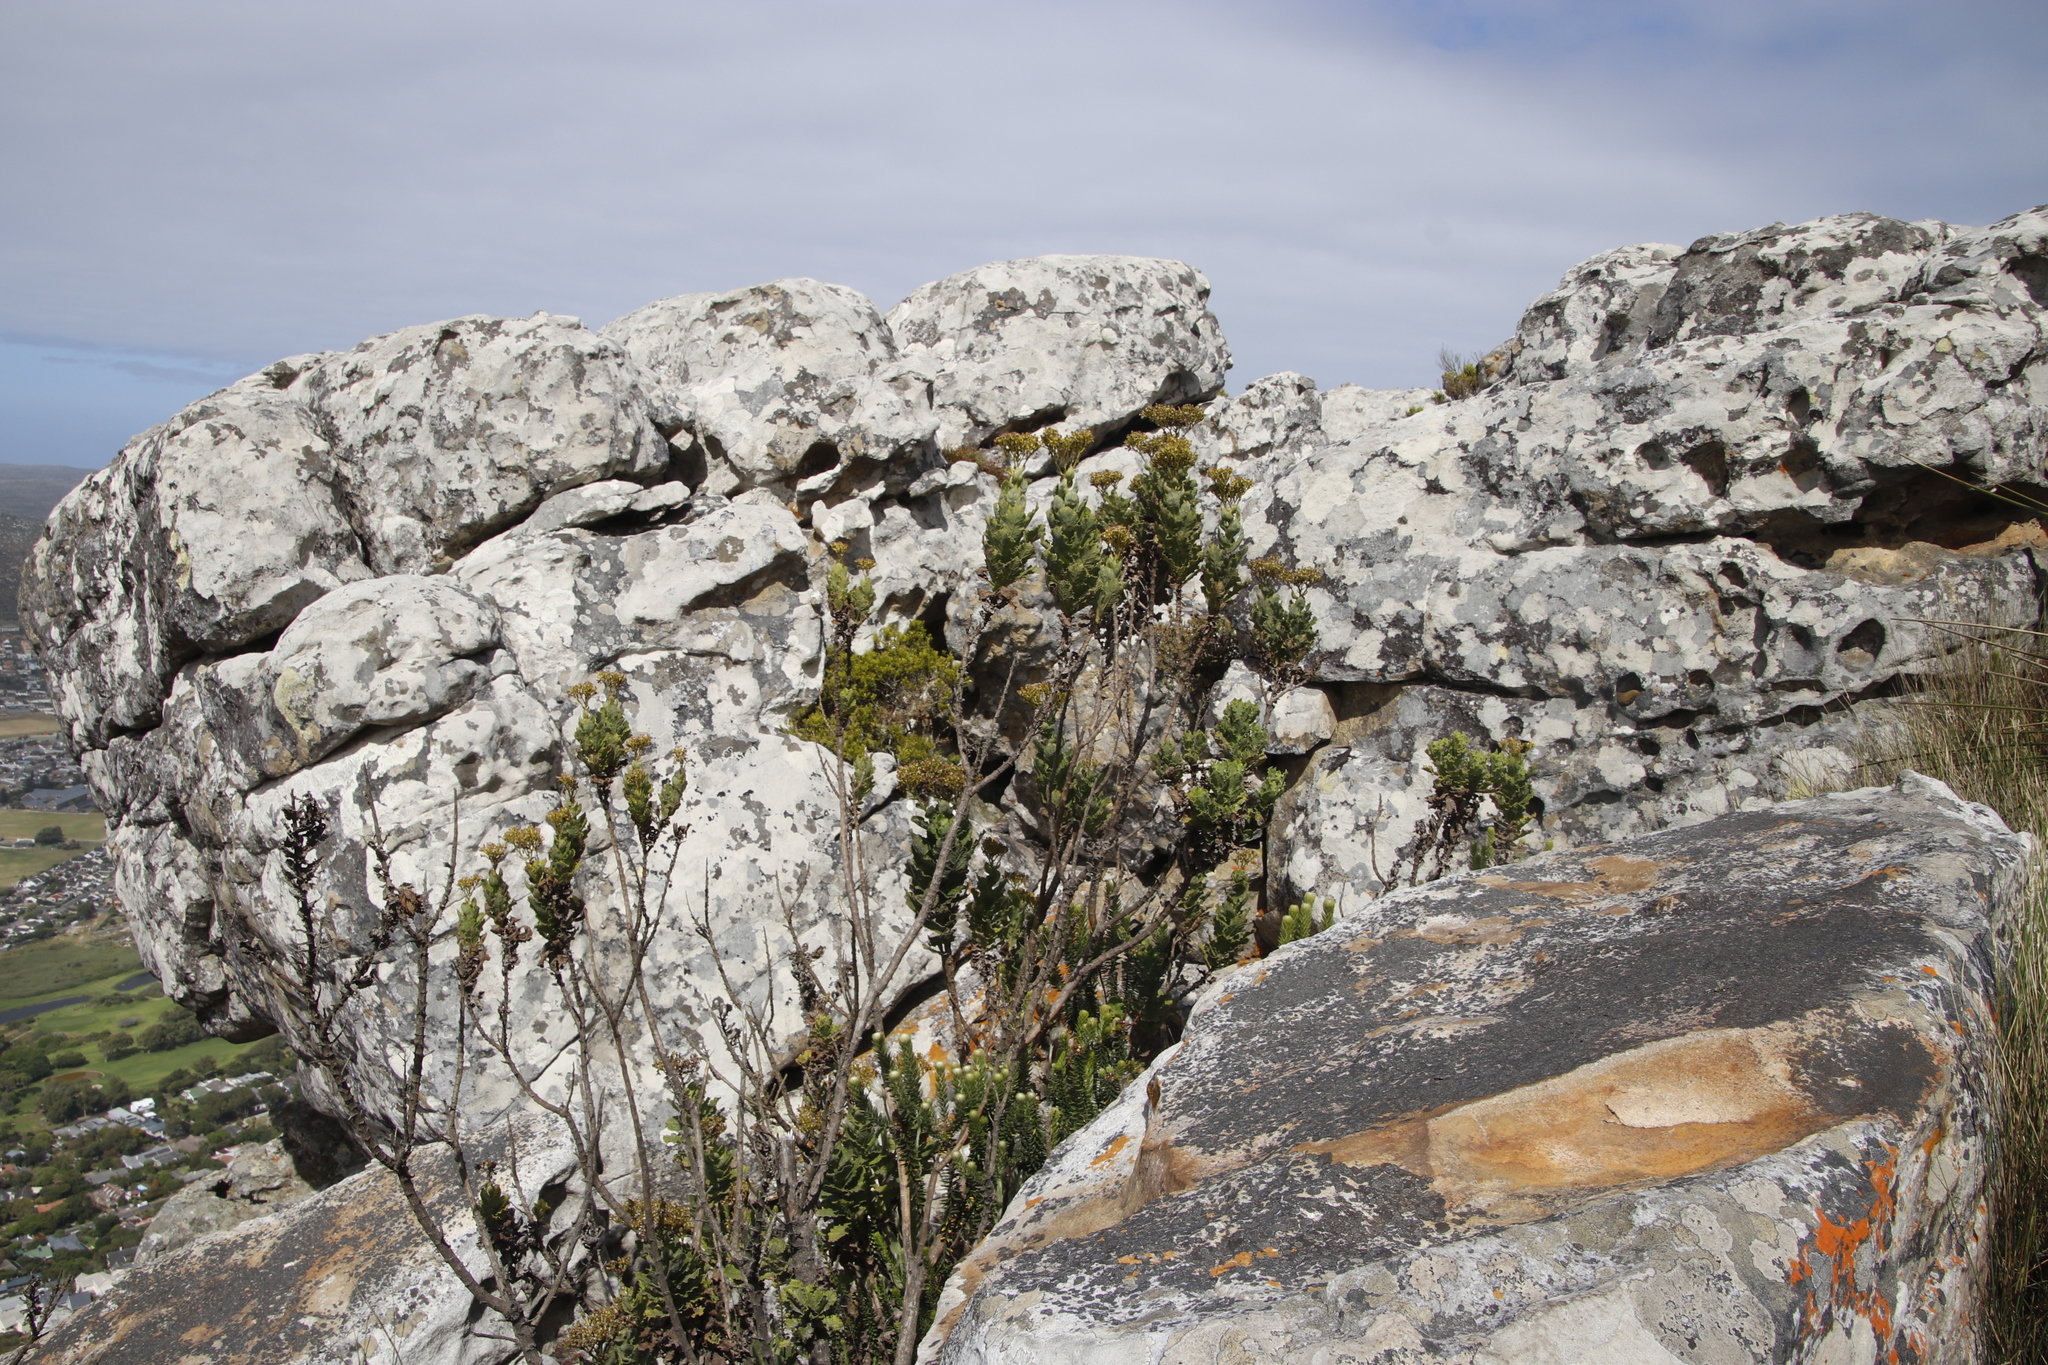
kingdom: Plantae
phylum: Tracheophyta
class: Magnoliopsida
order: Asterales
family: Asteraceae
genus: Senecio
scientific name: Senecio rigidus
